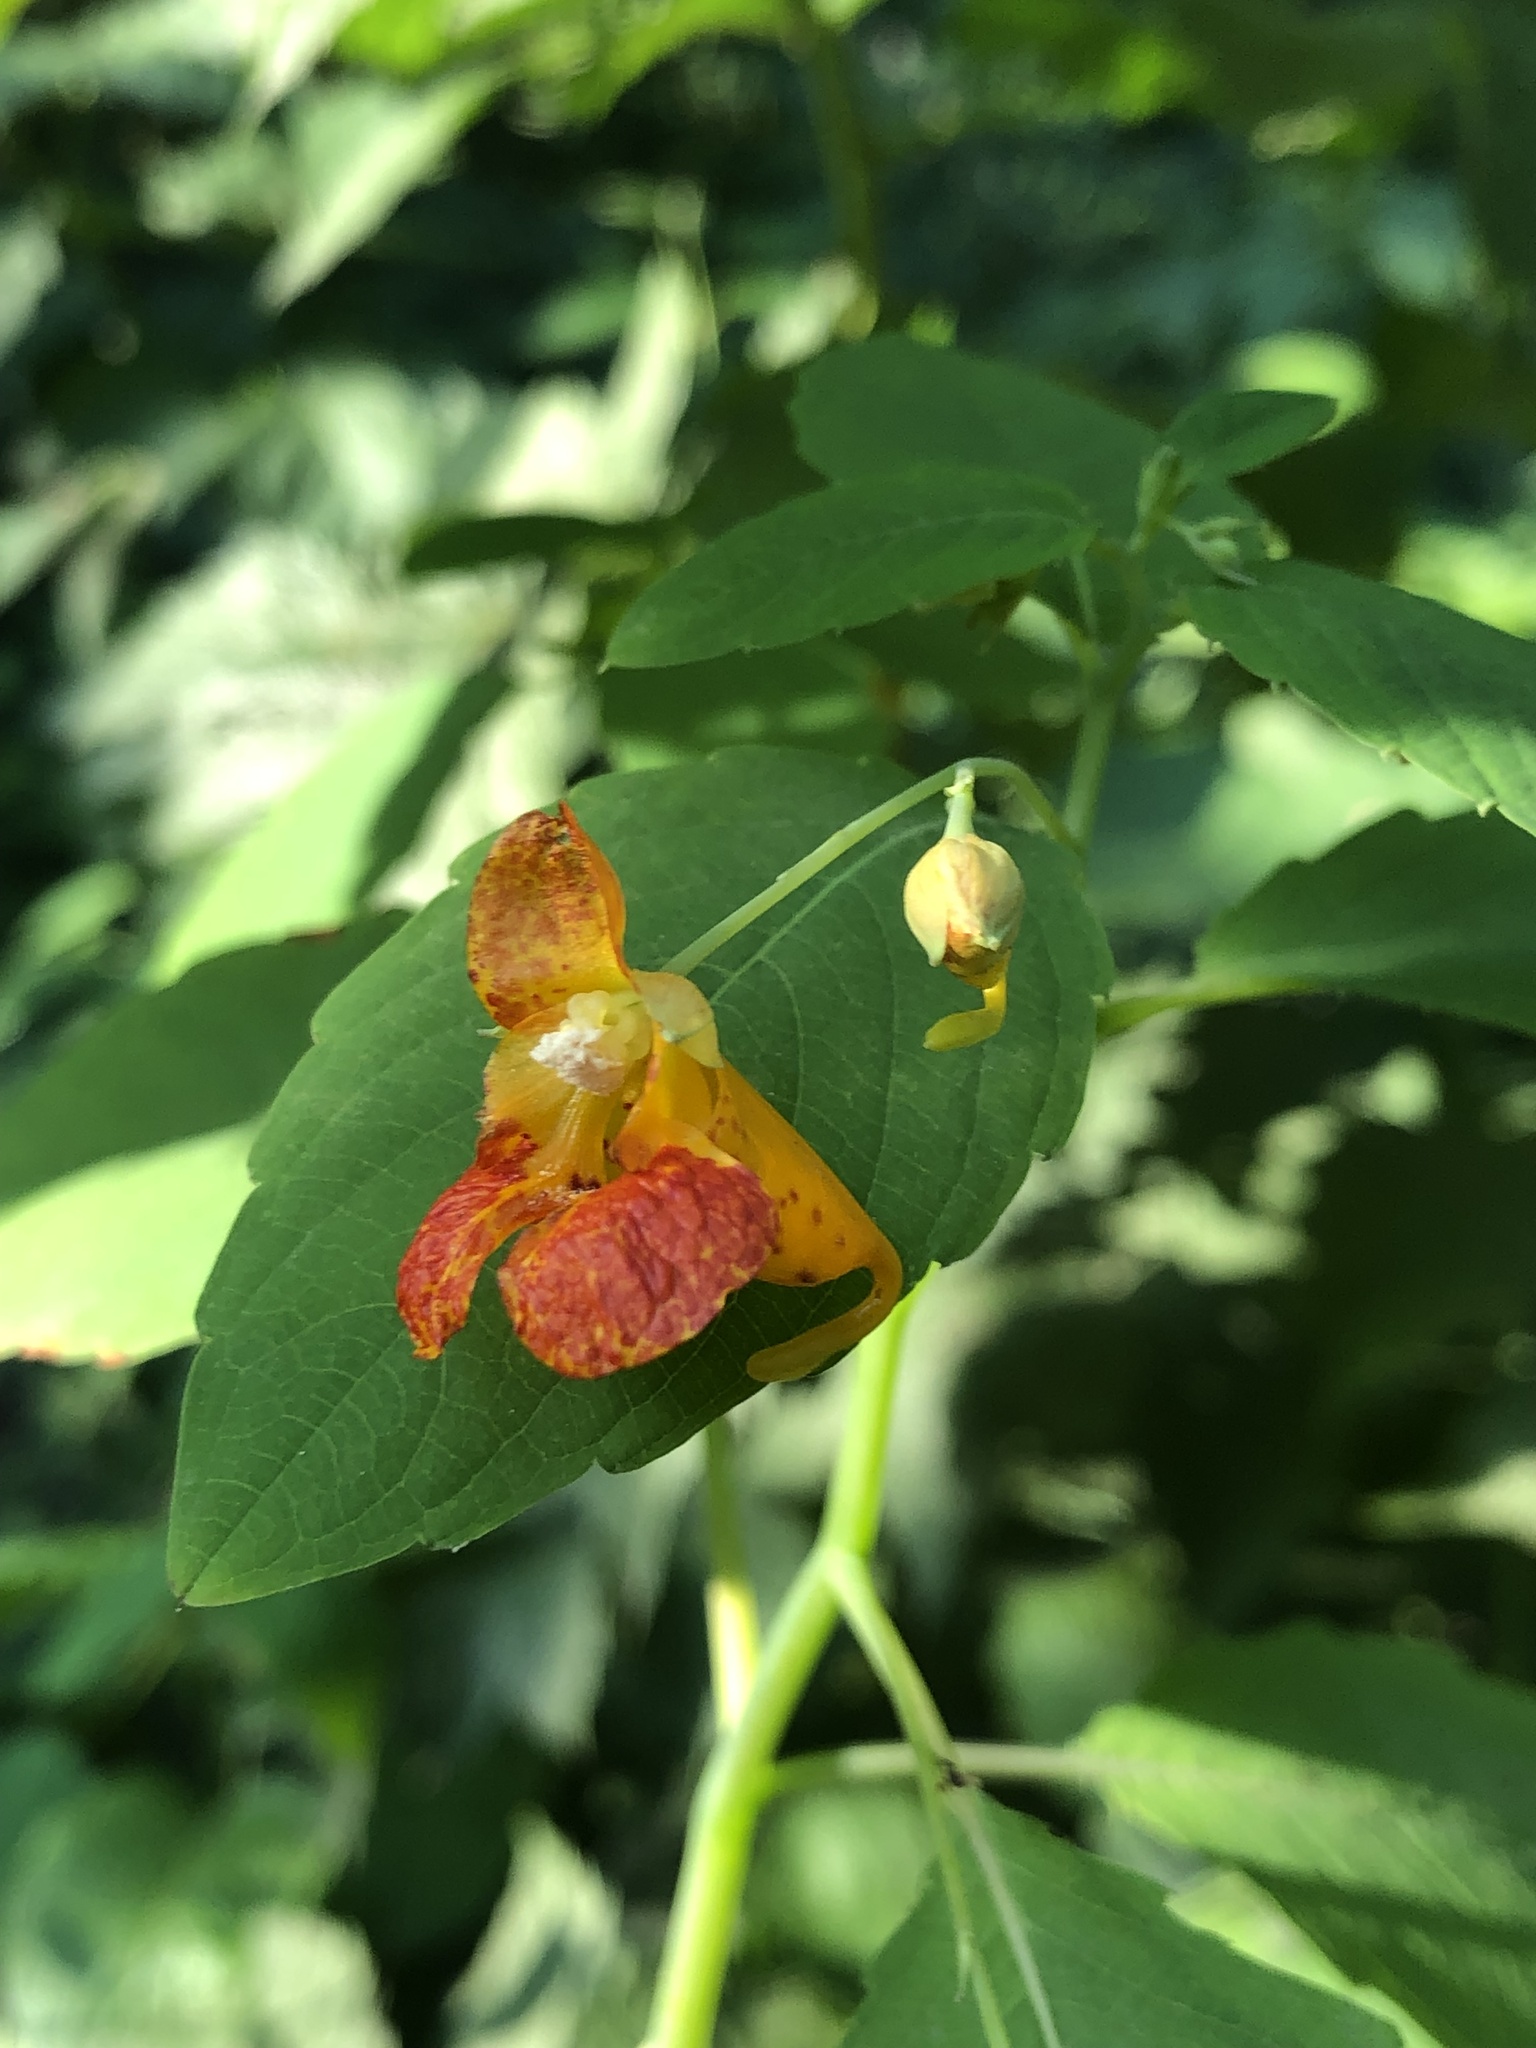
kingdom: Plantae
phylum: Tracheophyta
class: Magnoliopsida
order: Ericales
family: Balsaminaceae
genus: Impatiens
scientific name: Impatiens capensis
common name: Orange balsam
